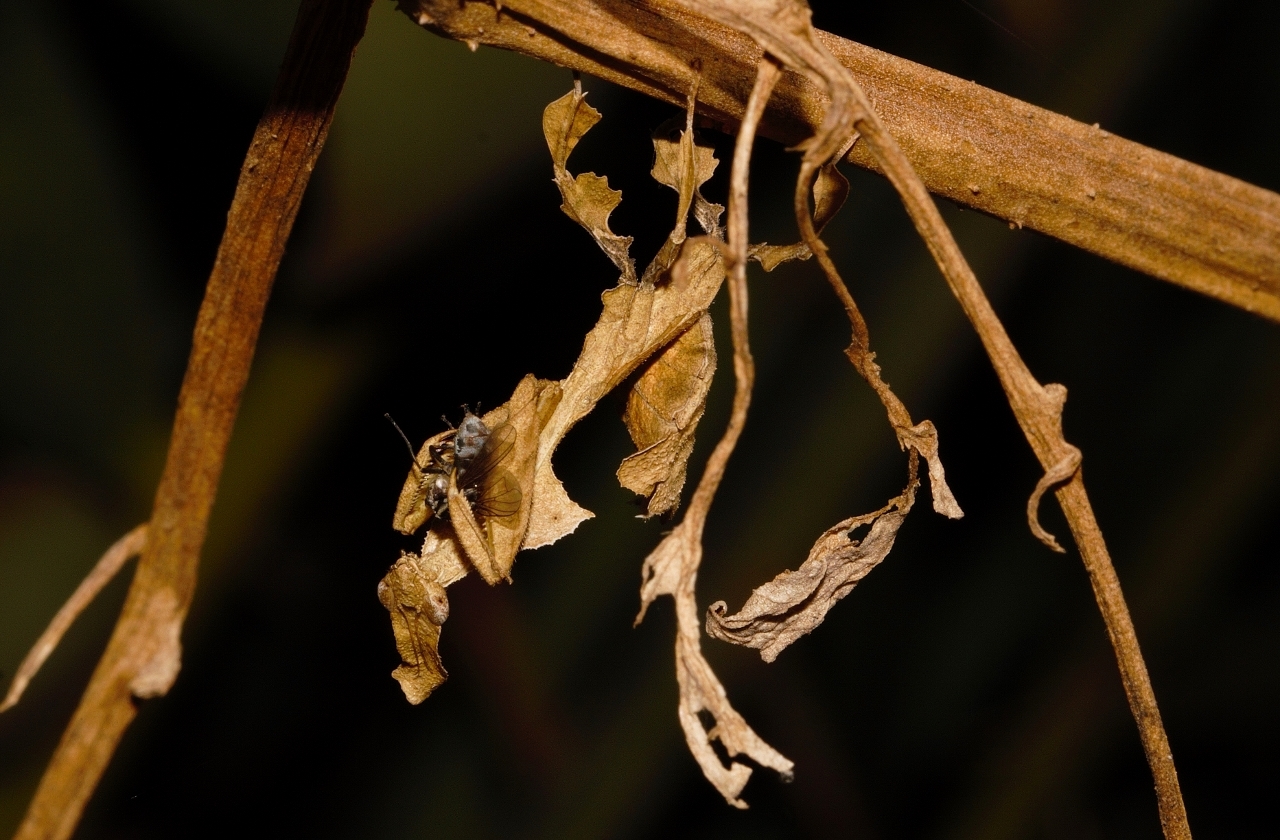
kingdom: Animalia
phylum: Arthropoda
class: Insecta
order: Mantodea
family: Hymenopodidae
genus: Phyllocrania
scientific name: Phyllocrania paradoxa
